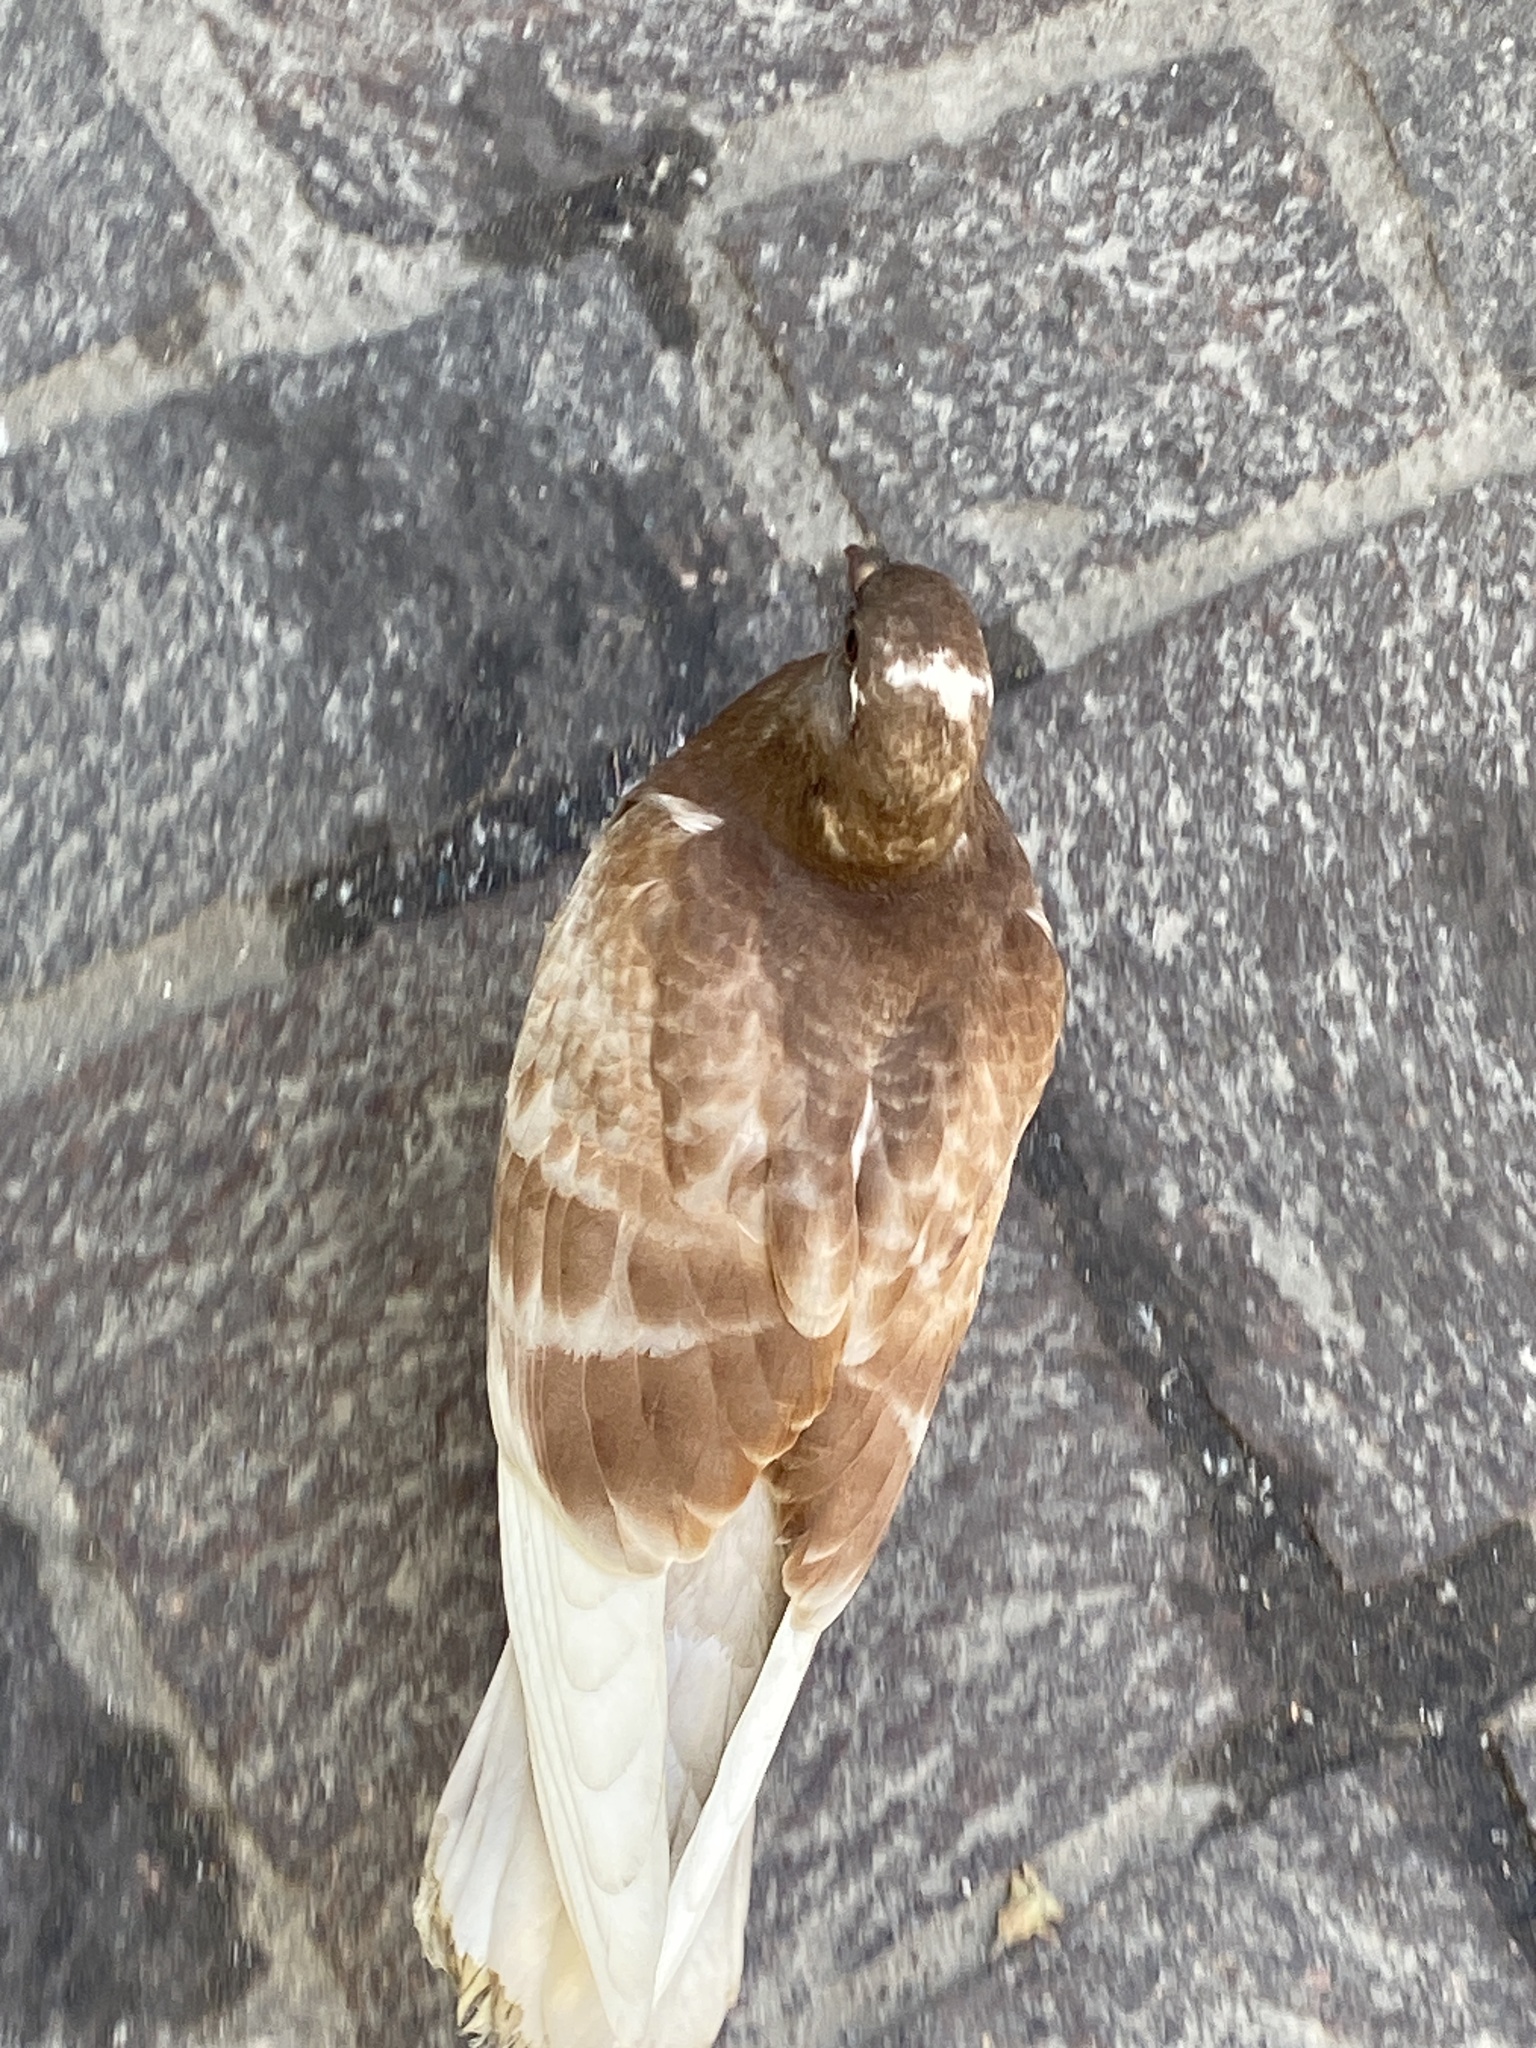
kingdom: Animalia
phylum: Chordata
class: Aves
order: Columbiformes
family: Columbidae
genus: Columba
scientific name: Columba livia
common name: Rock pigeon
